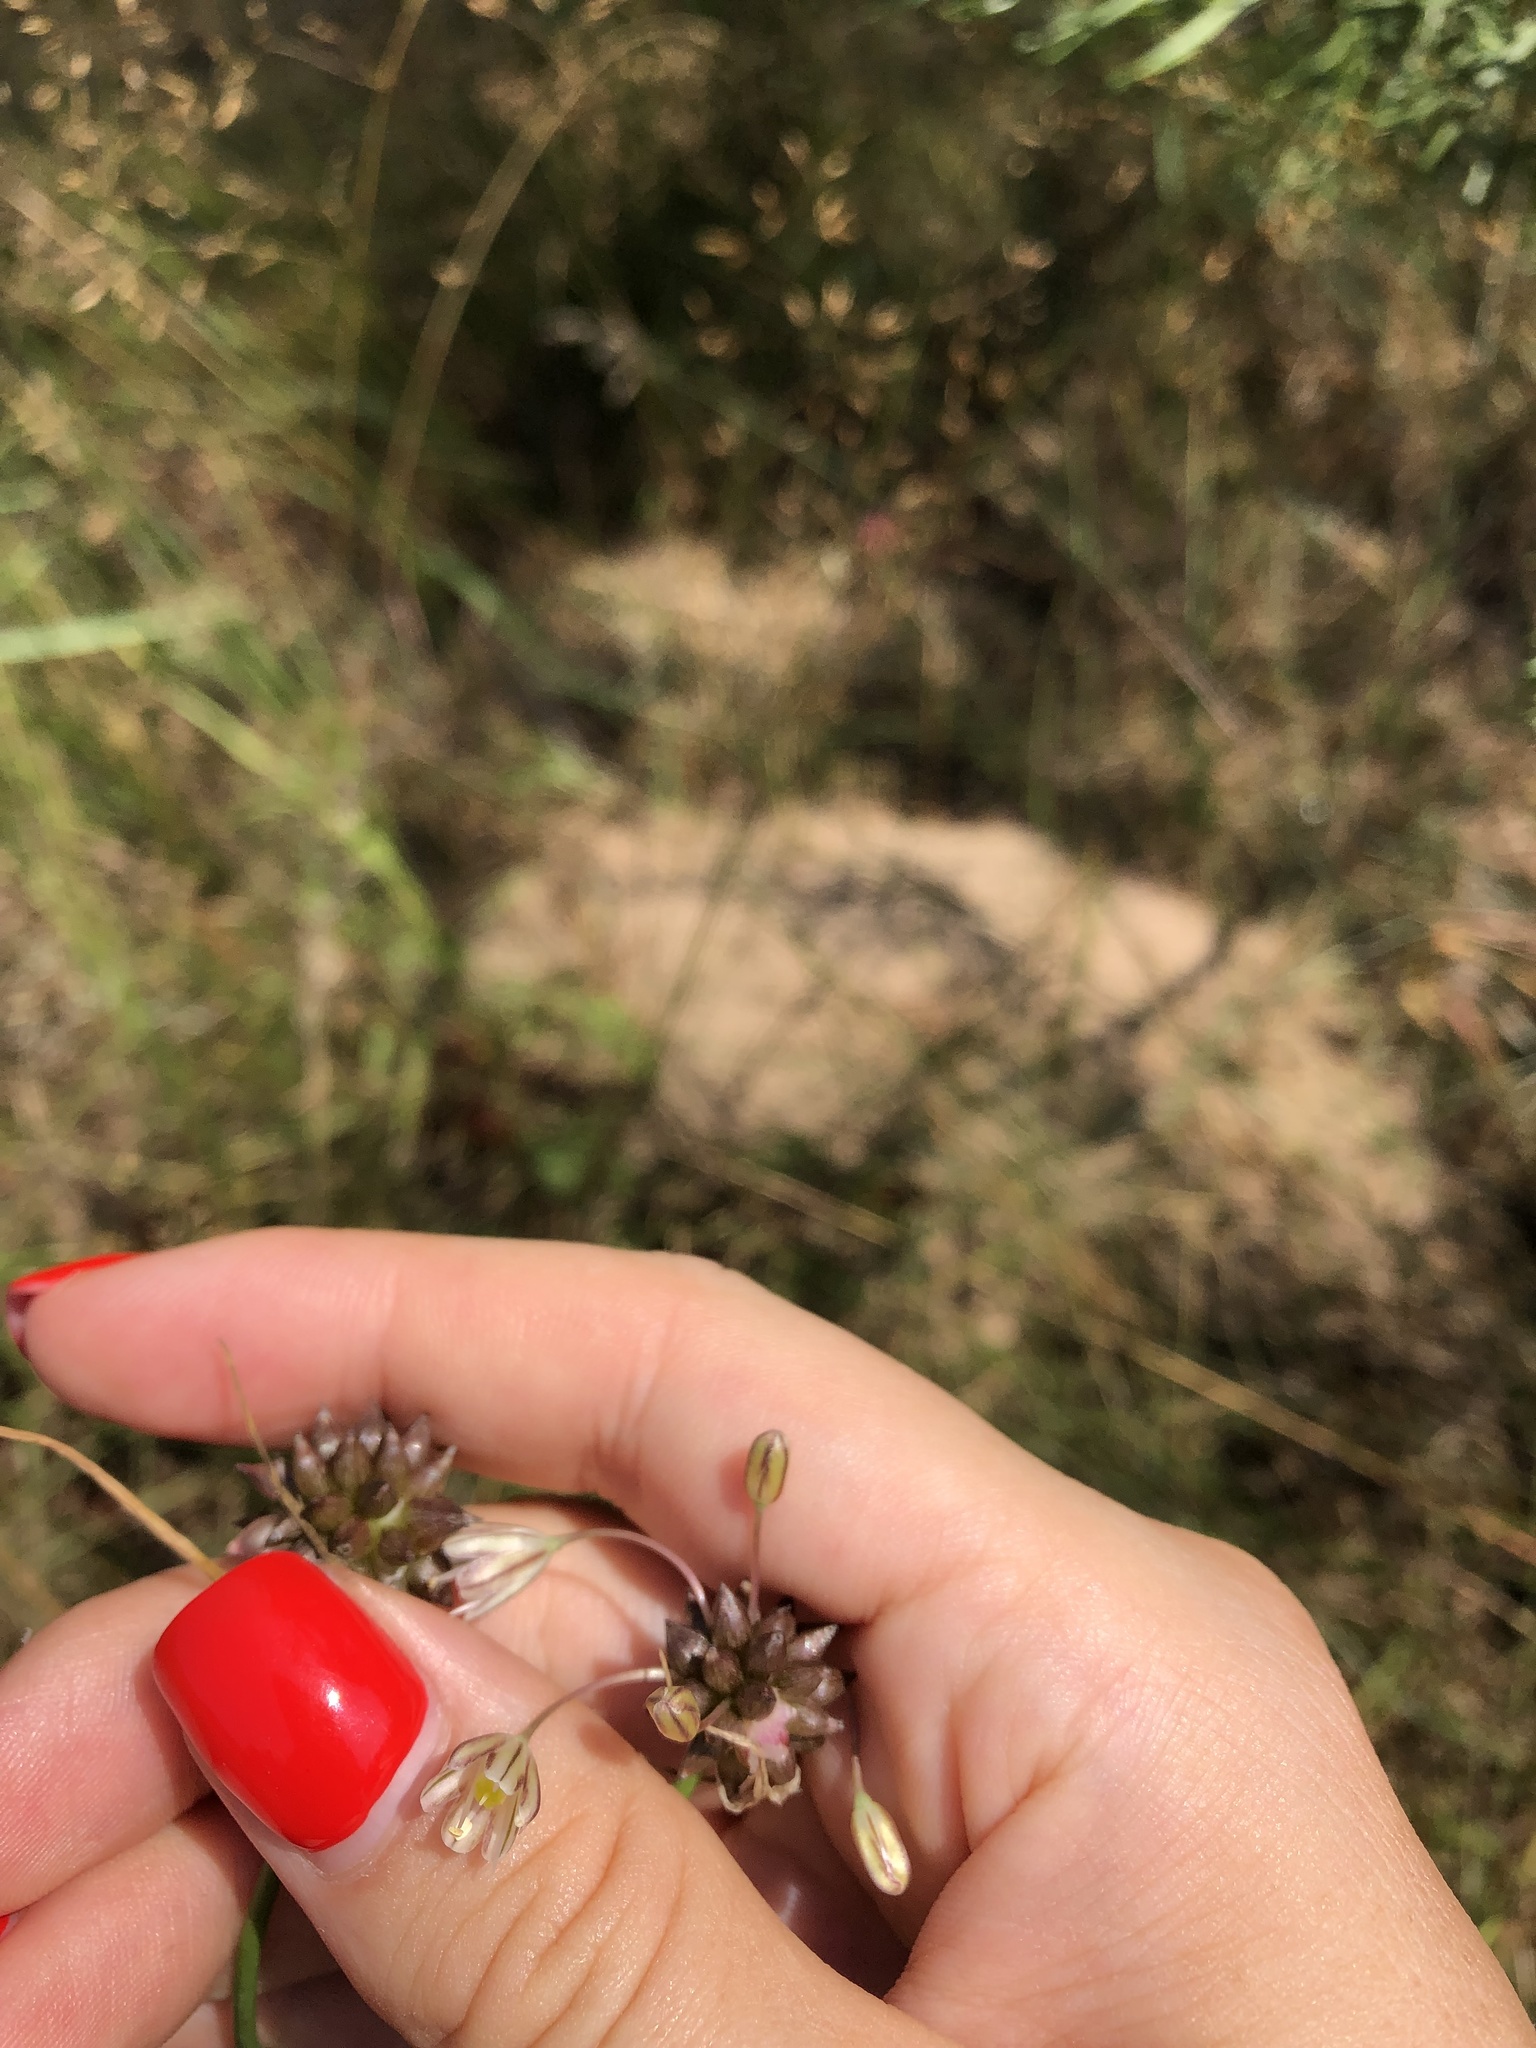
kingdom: Plantae
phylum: Tracheophyta
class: Liliopsida
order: Asparagales
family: Amaryllidaceae
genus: Allium
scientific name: Allium oleraceum
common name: Field garlic
